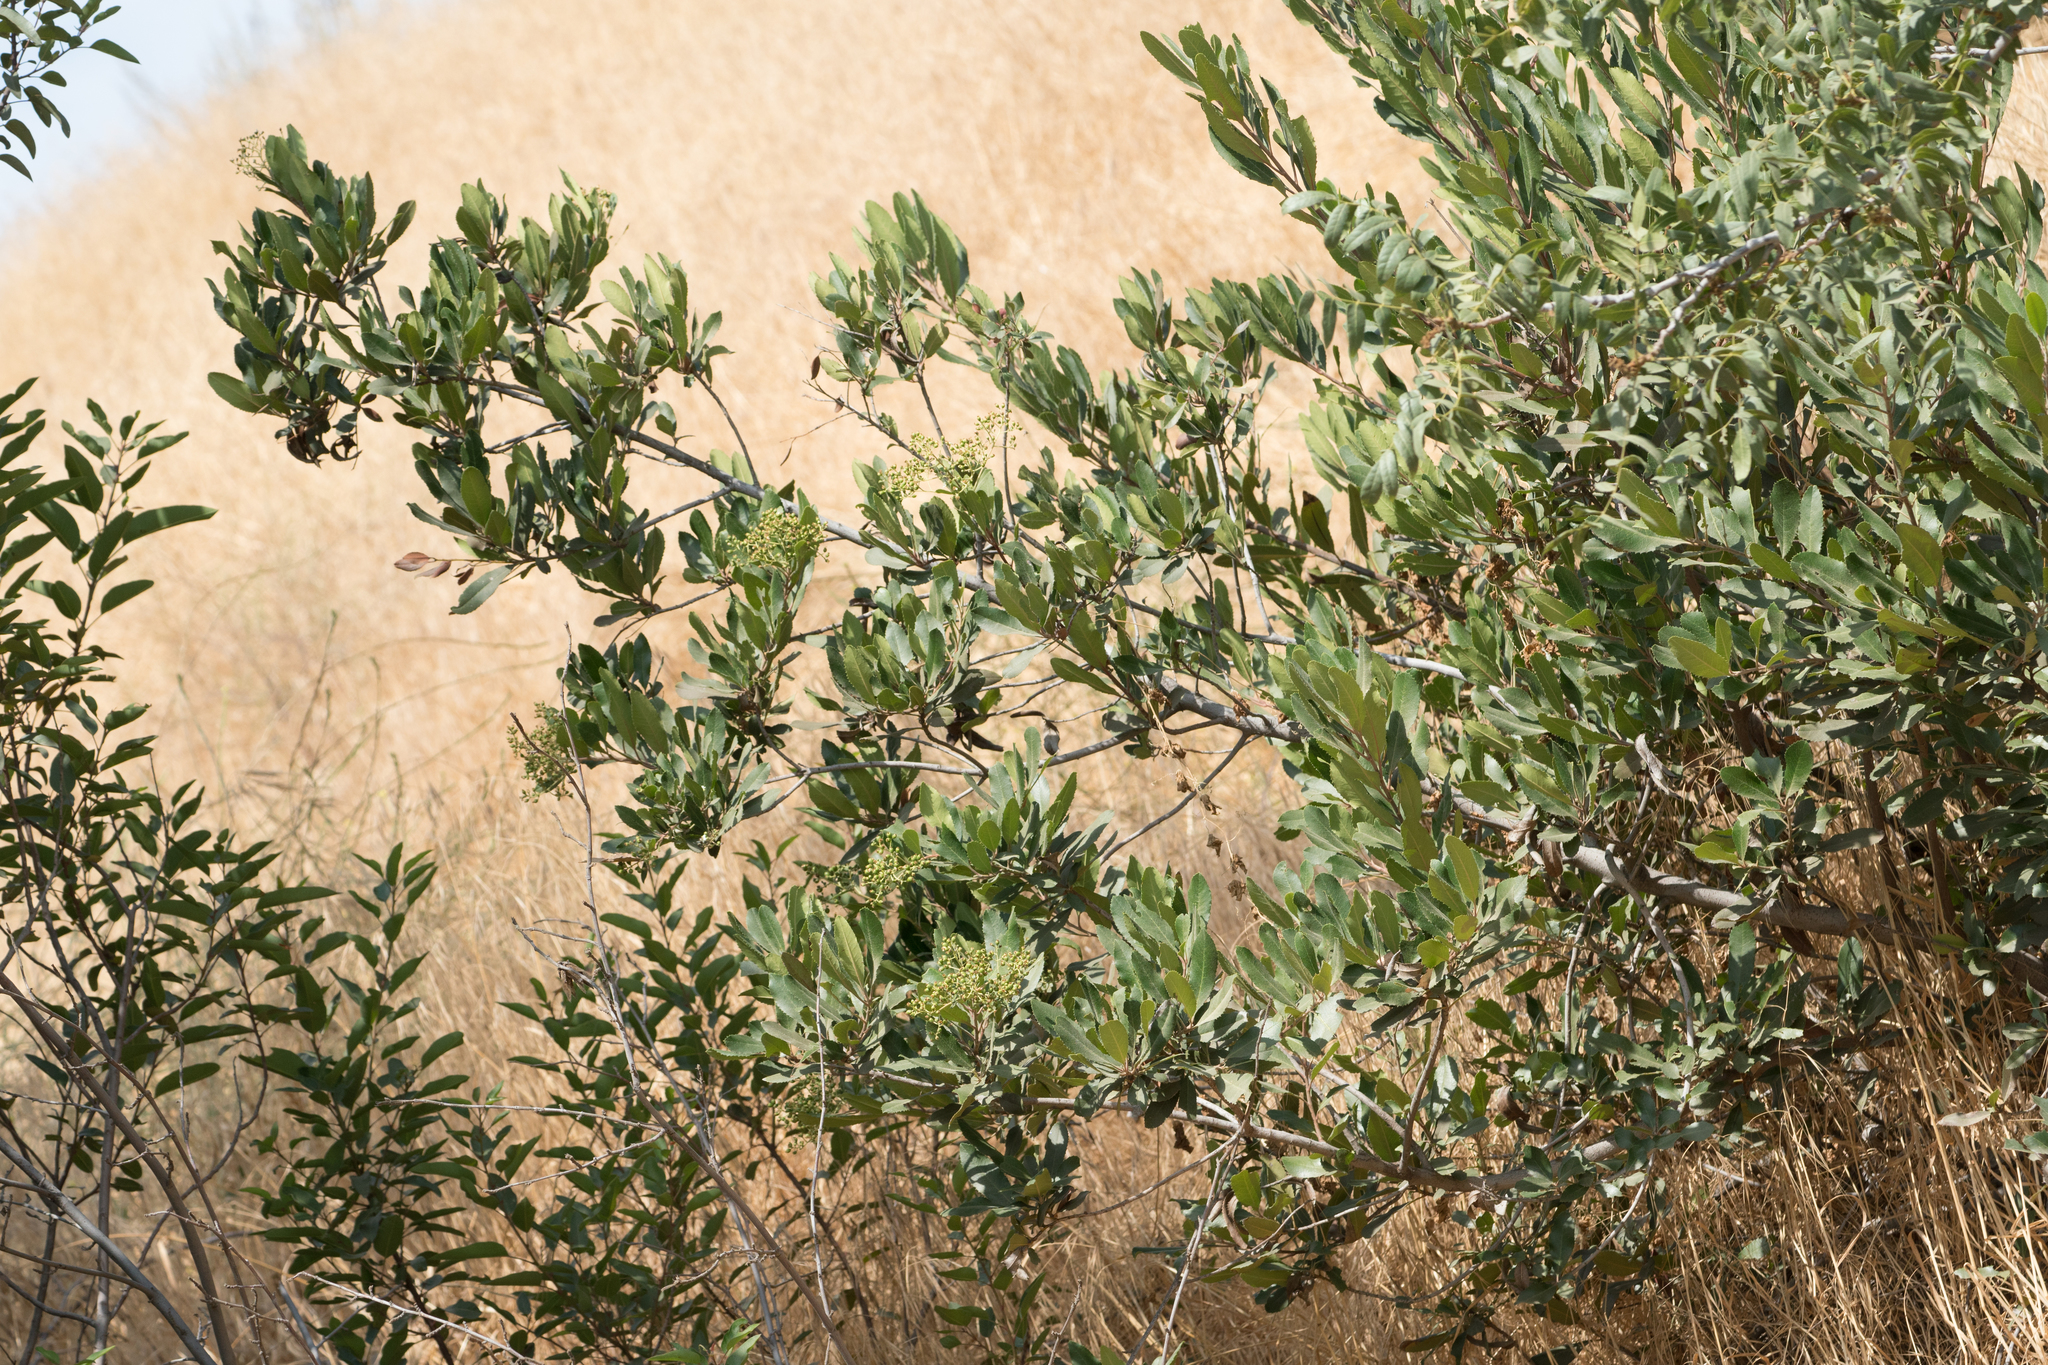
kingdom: Plantae
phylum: Tracheophyta
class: Magnoliopsida
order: Rosales
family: Rosaceae
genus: Heteromeles
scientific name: Heteromeles arbutifolia
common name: California-holly
